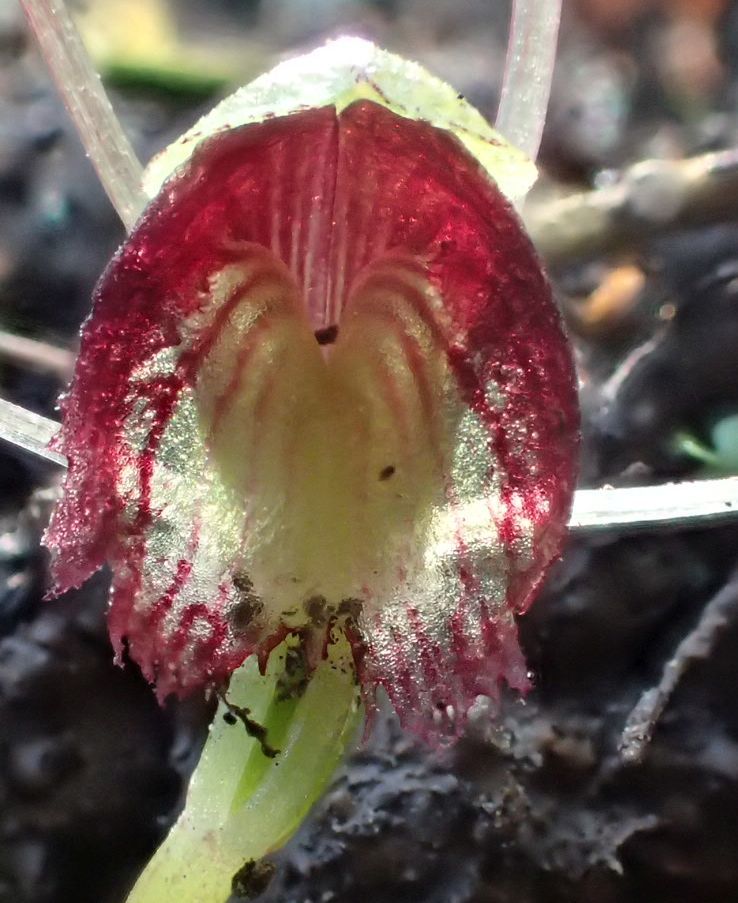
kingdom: Plantae
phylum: Tracheophyta
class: Liliopsida
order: Asparagales
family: Orchidaceae
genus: Corybas
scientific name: Corybas trilobus
